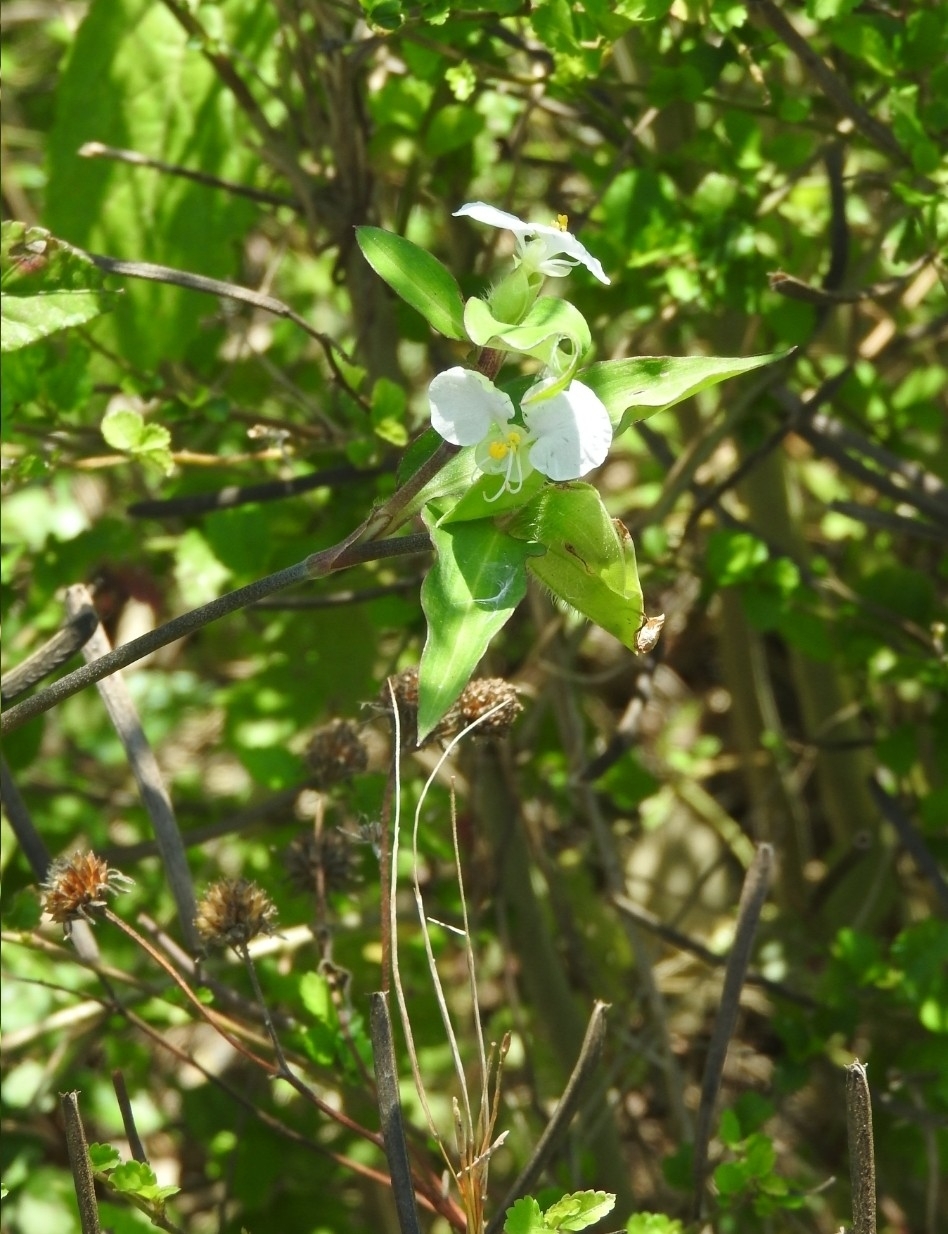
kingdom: Plantae
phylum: Tracheophyta
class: Liliopsida
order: Commelinales
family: Commelinaceae
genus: Commelina
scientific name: Commelina erecta
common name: Blousel blommetjie
